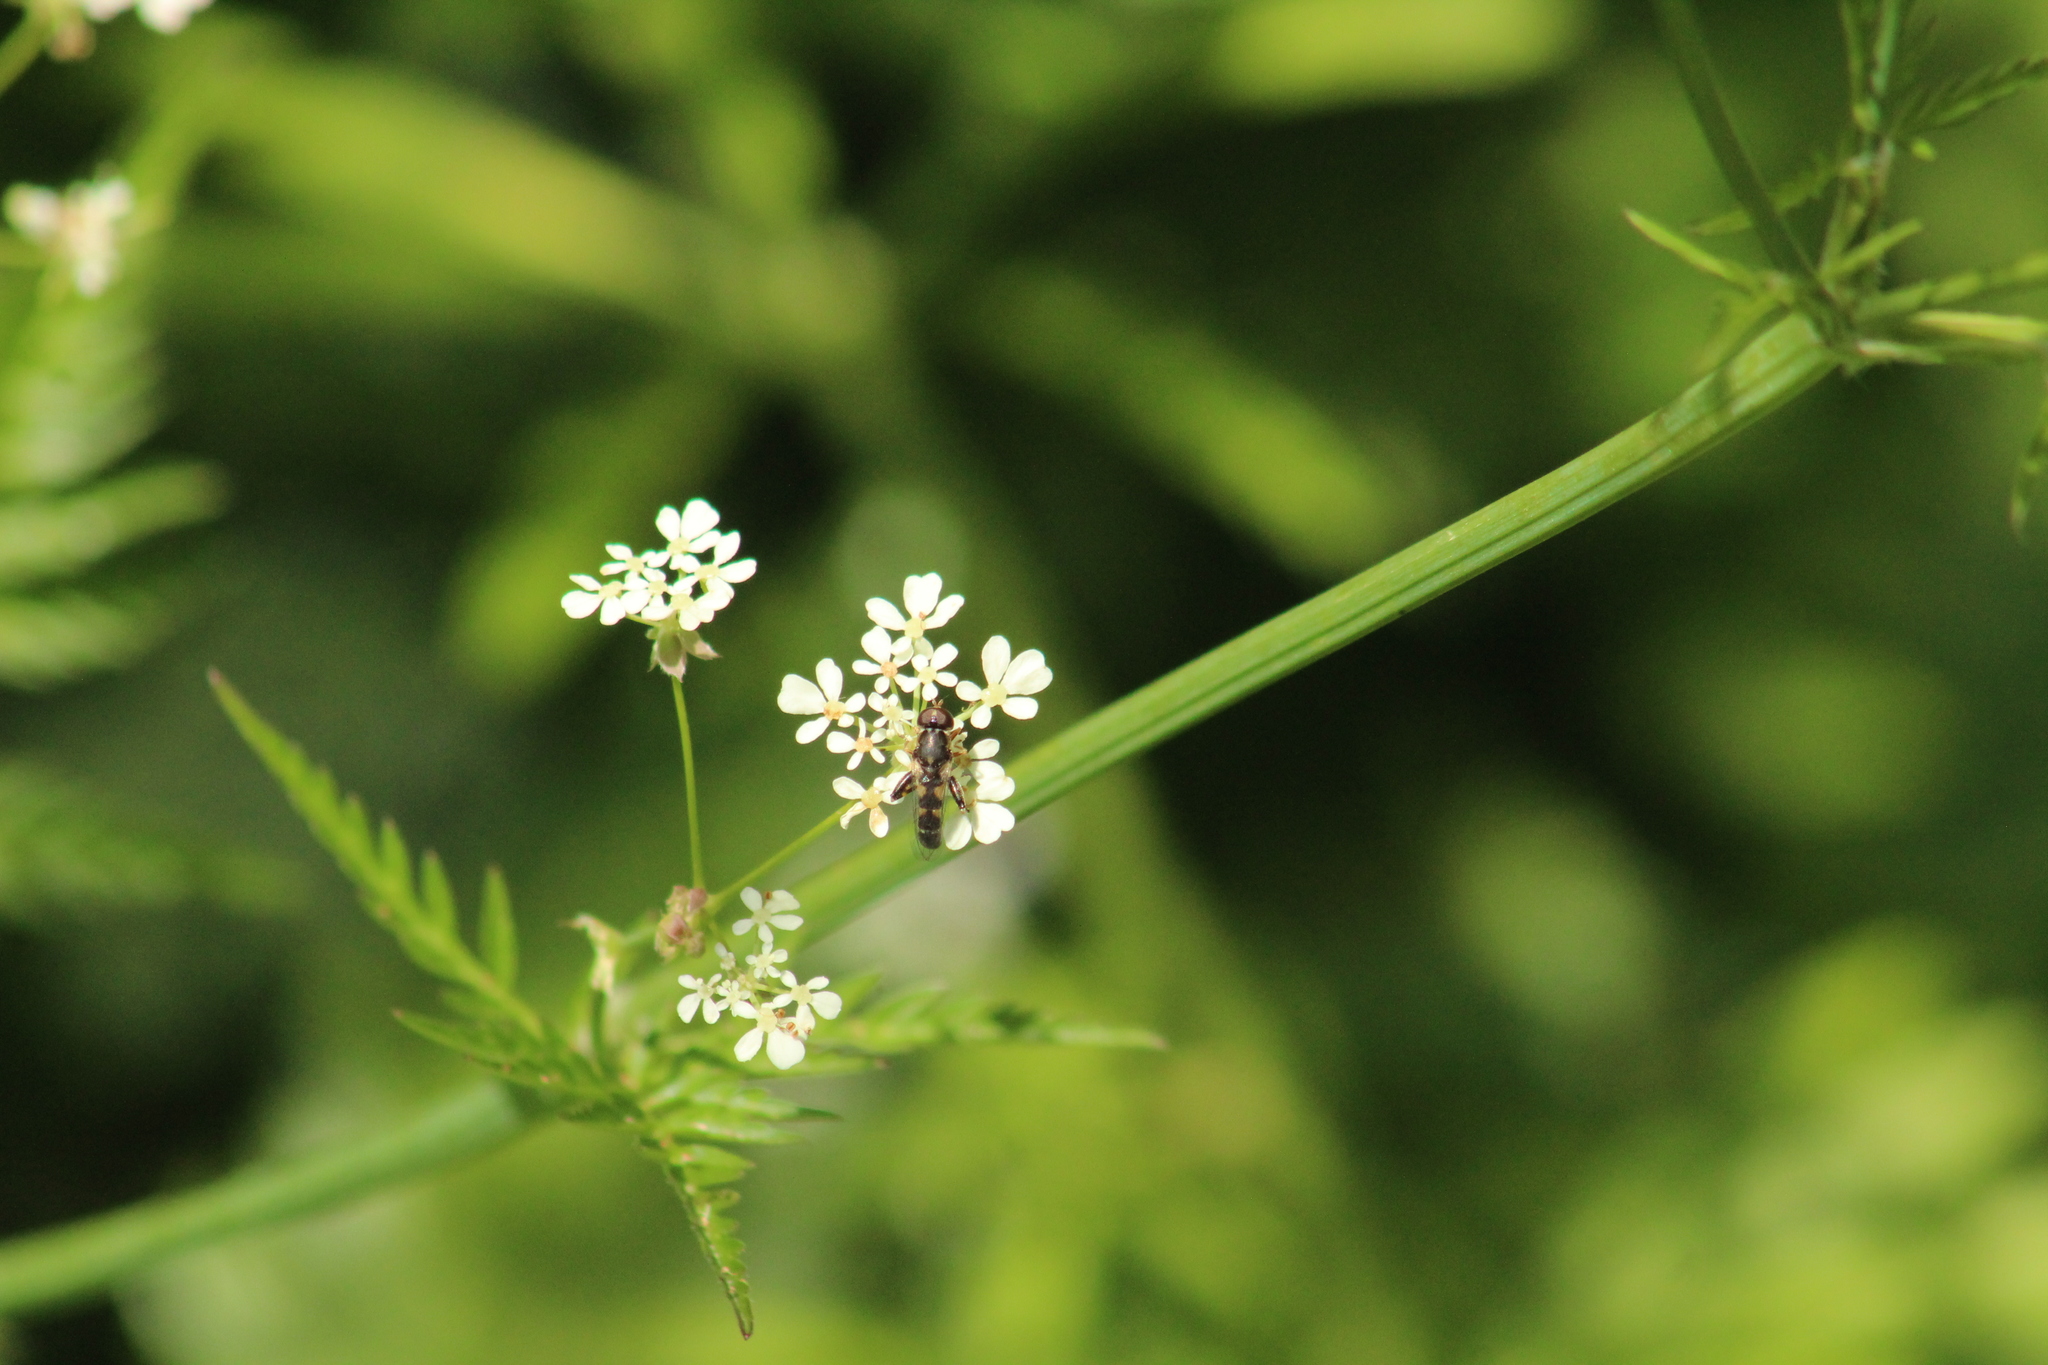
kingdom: Animalia
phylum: Arthropoda
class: Insecta
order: Diptera
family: Syrphidae
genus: Syritta
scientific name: Syritta pipiens
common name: Hover fly
